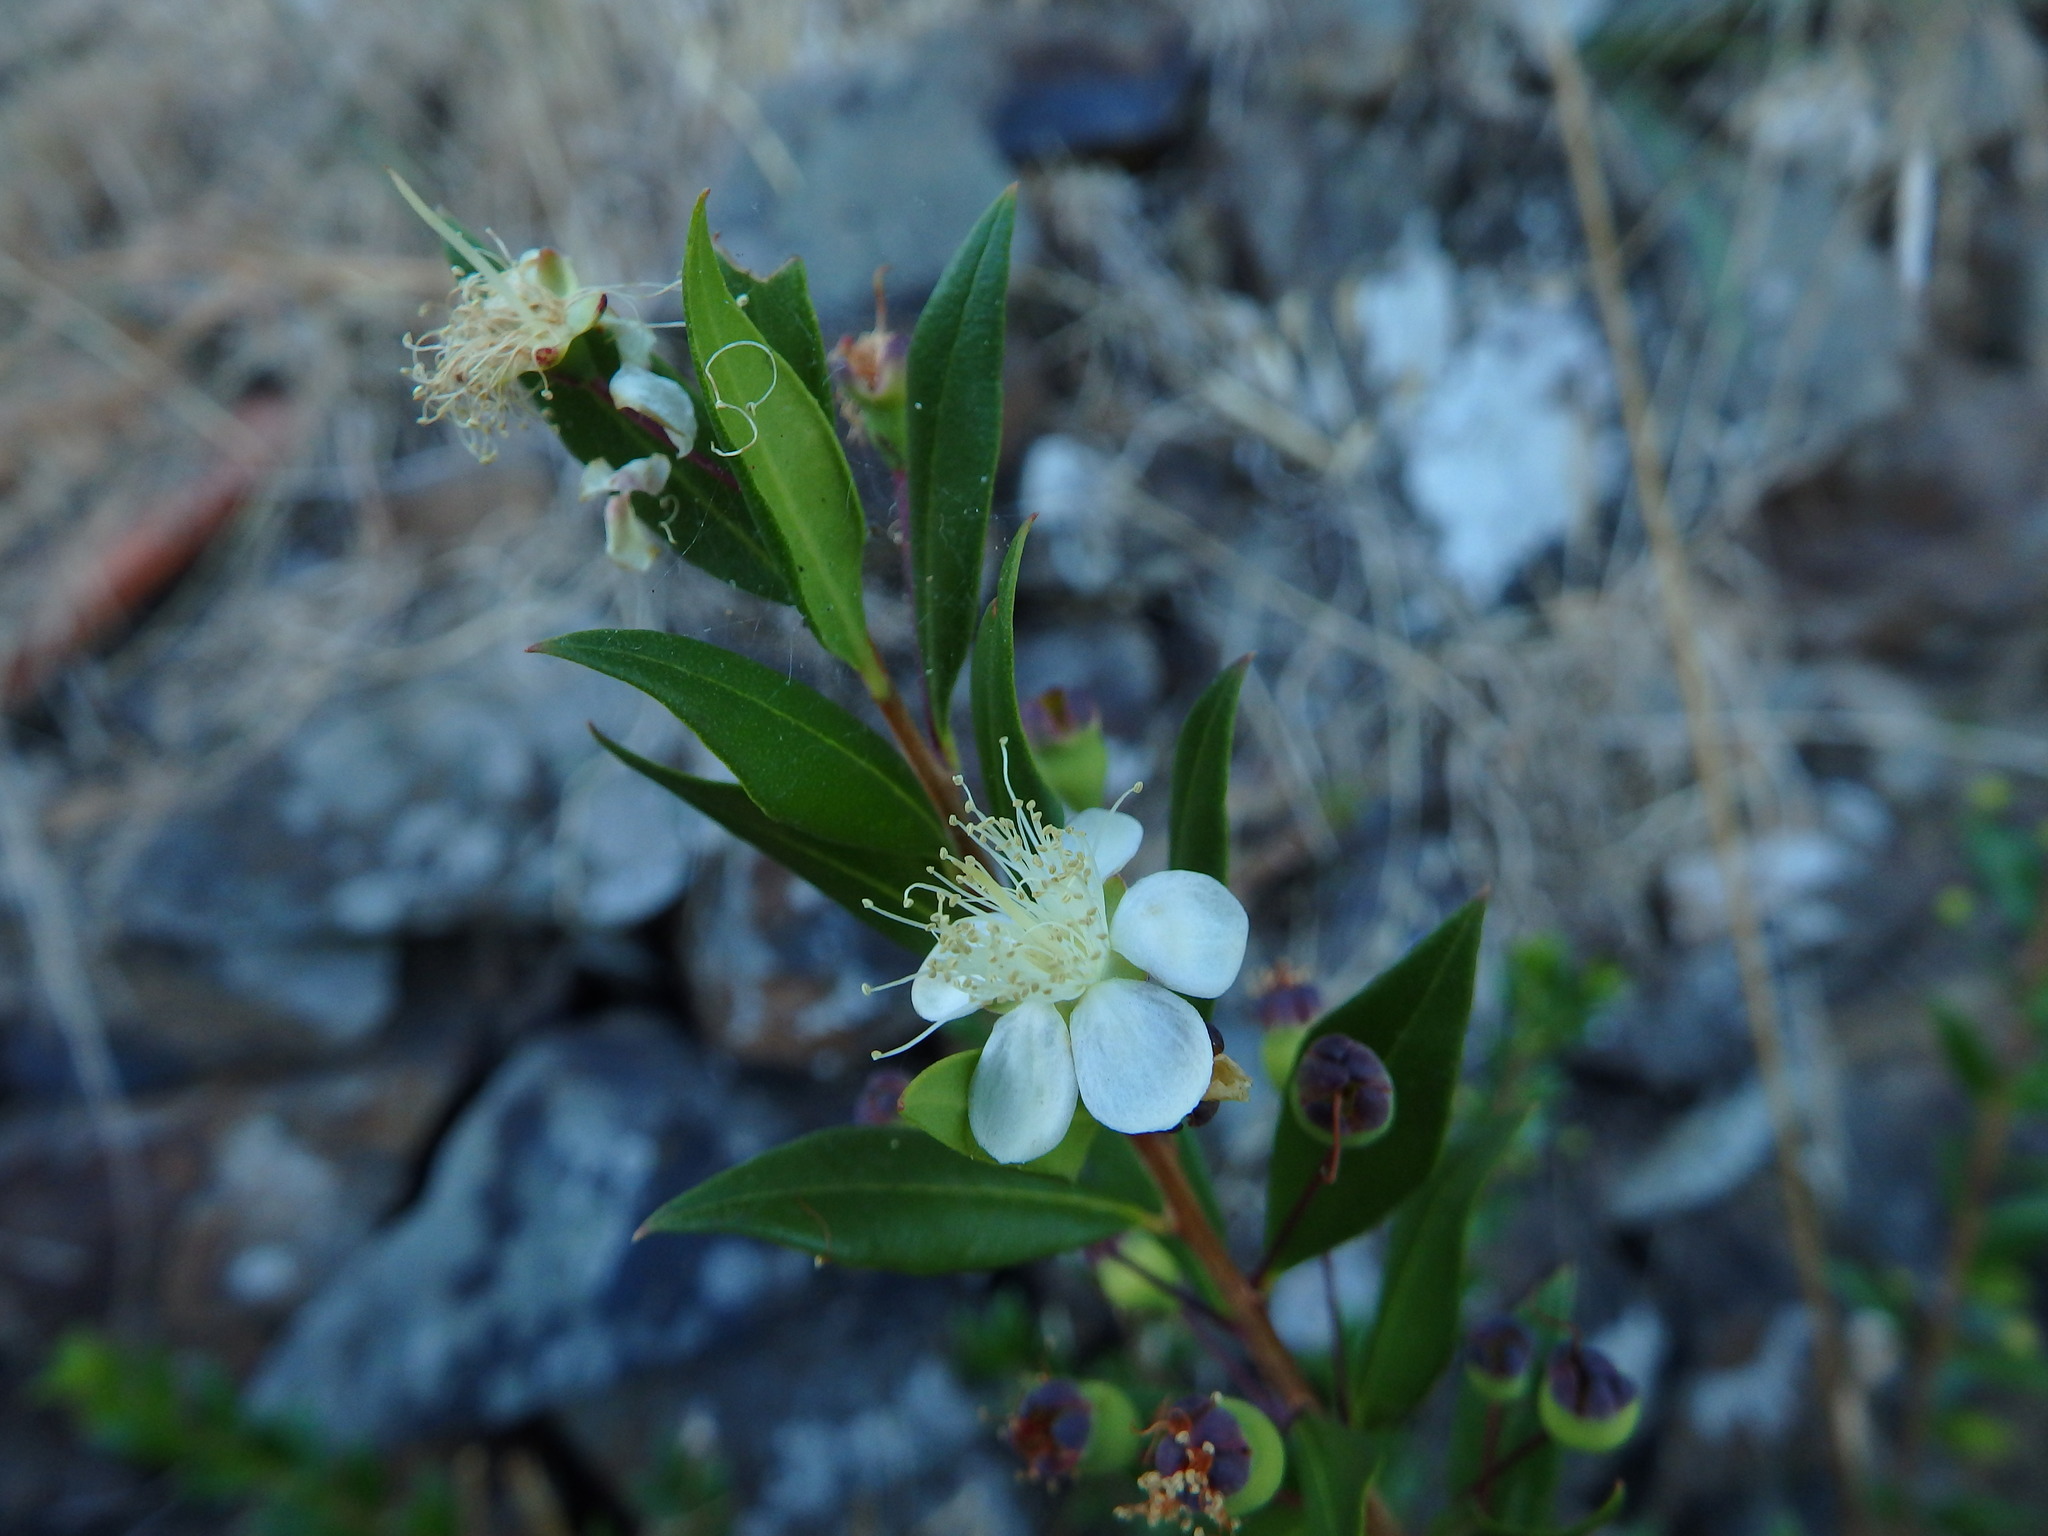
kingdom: Plantae
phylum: Tracheophyta
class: Magnoliopsida
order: Myrtales
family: Myrtaceae
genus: Myrtus
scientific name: Myrtus communis
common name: Myrtle
